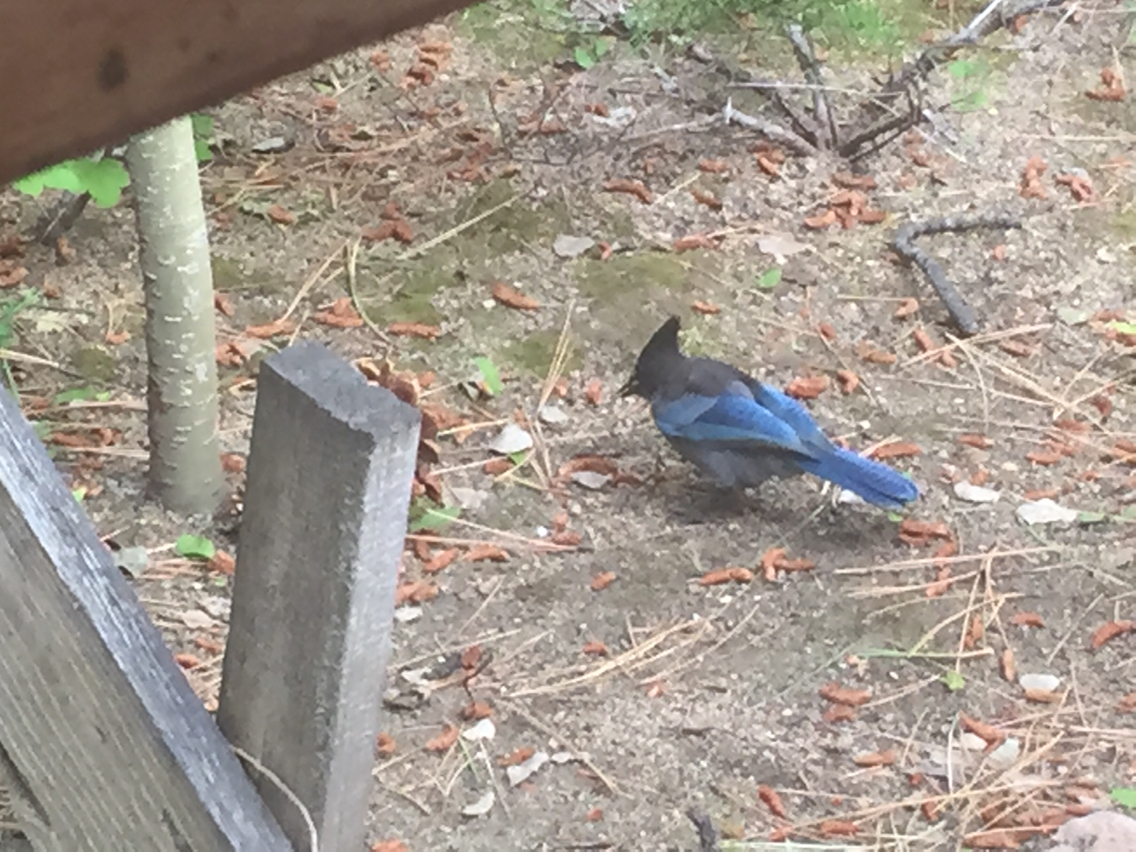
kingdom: Animalia
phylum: Chordata
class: Aves
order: Passeriformes
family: Corvidae
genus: Cyanocitta
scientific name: Cyanocitta stelleri
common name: Steller's jay
